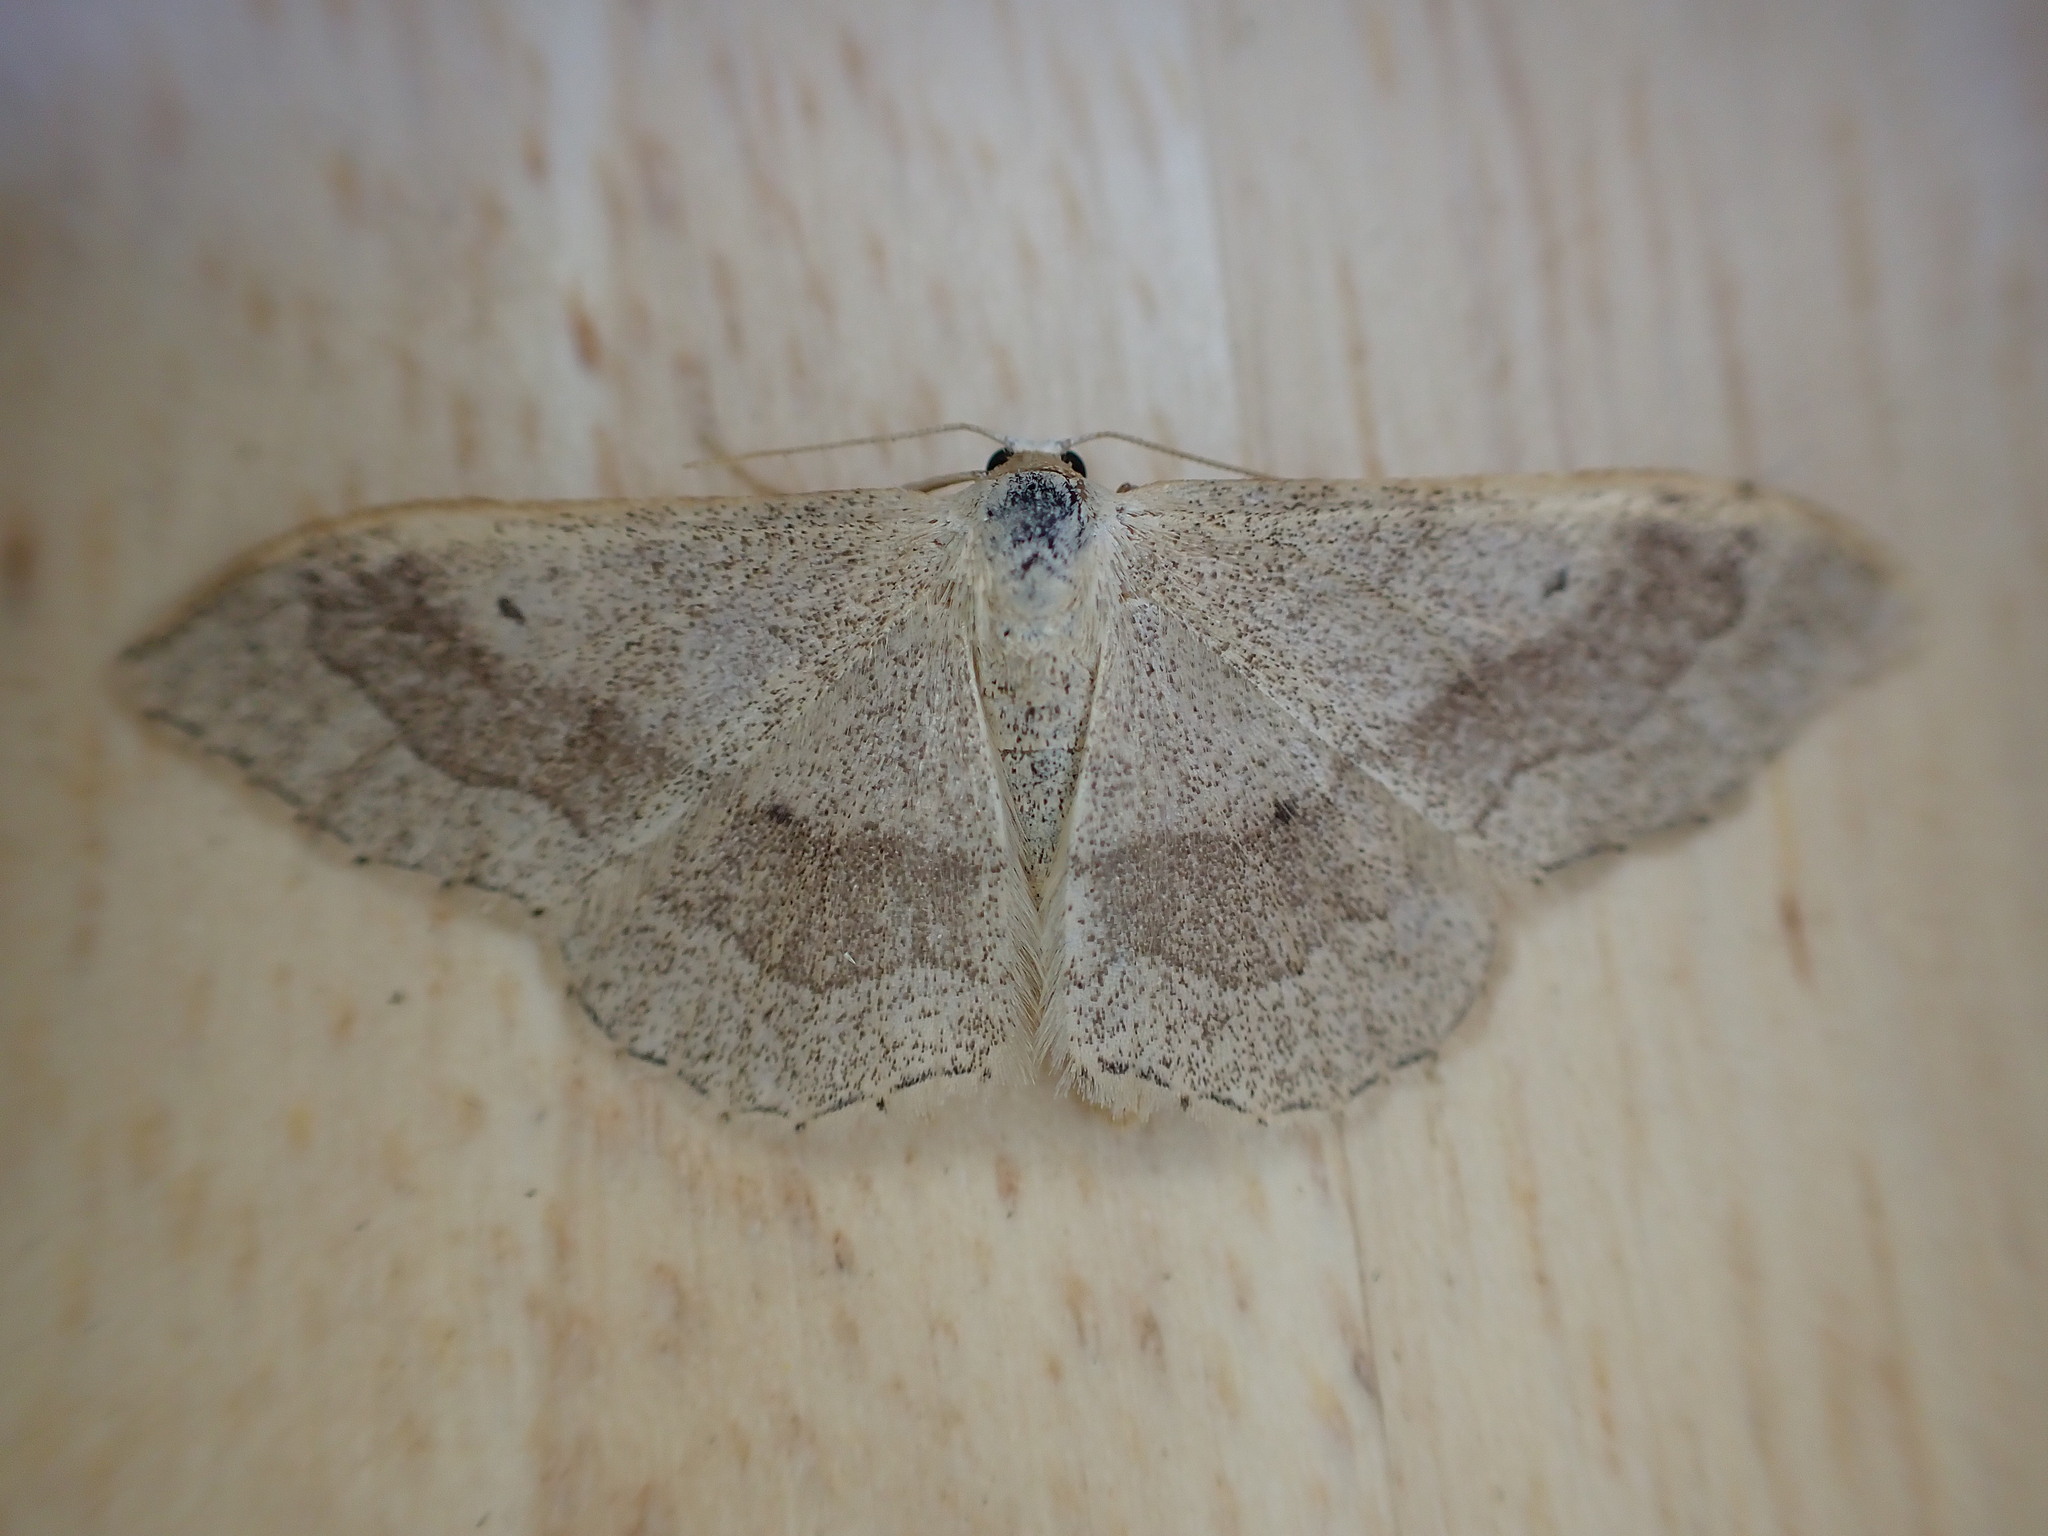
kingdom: Animalia
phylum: Arthropoda
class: Insecta
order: Lepidoptera
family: Geometridae
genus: Idaea
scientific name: Idaea aversata
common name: Riband wave
